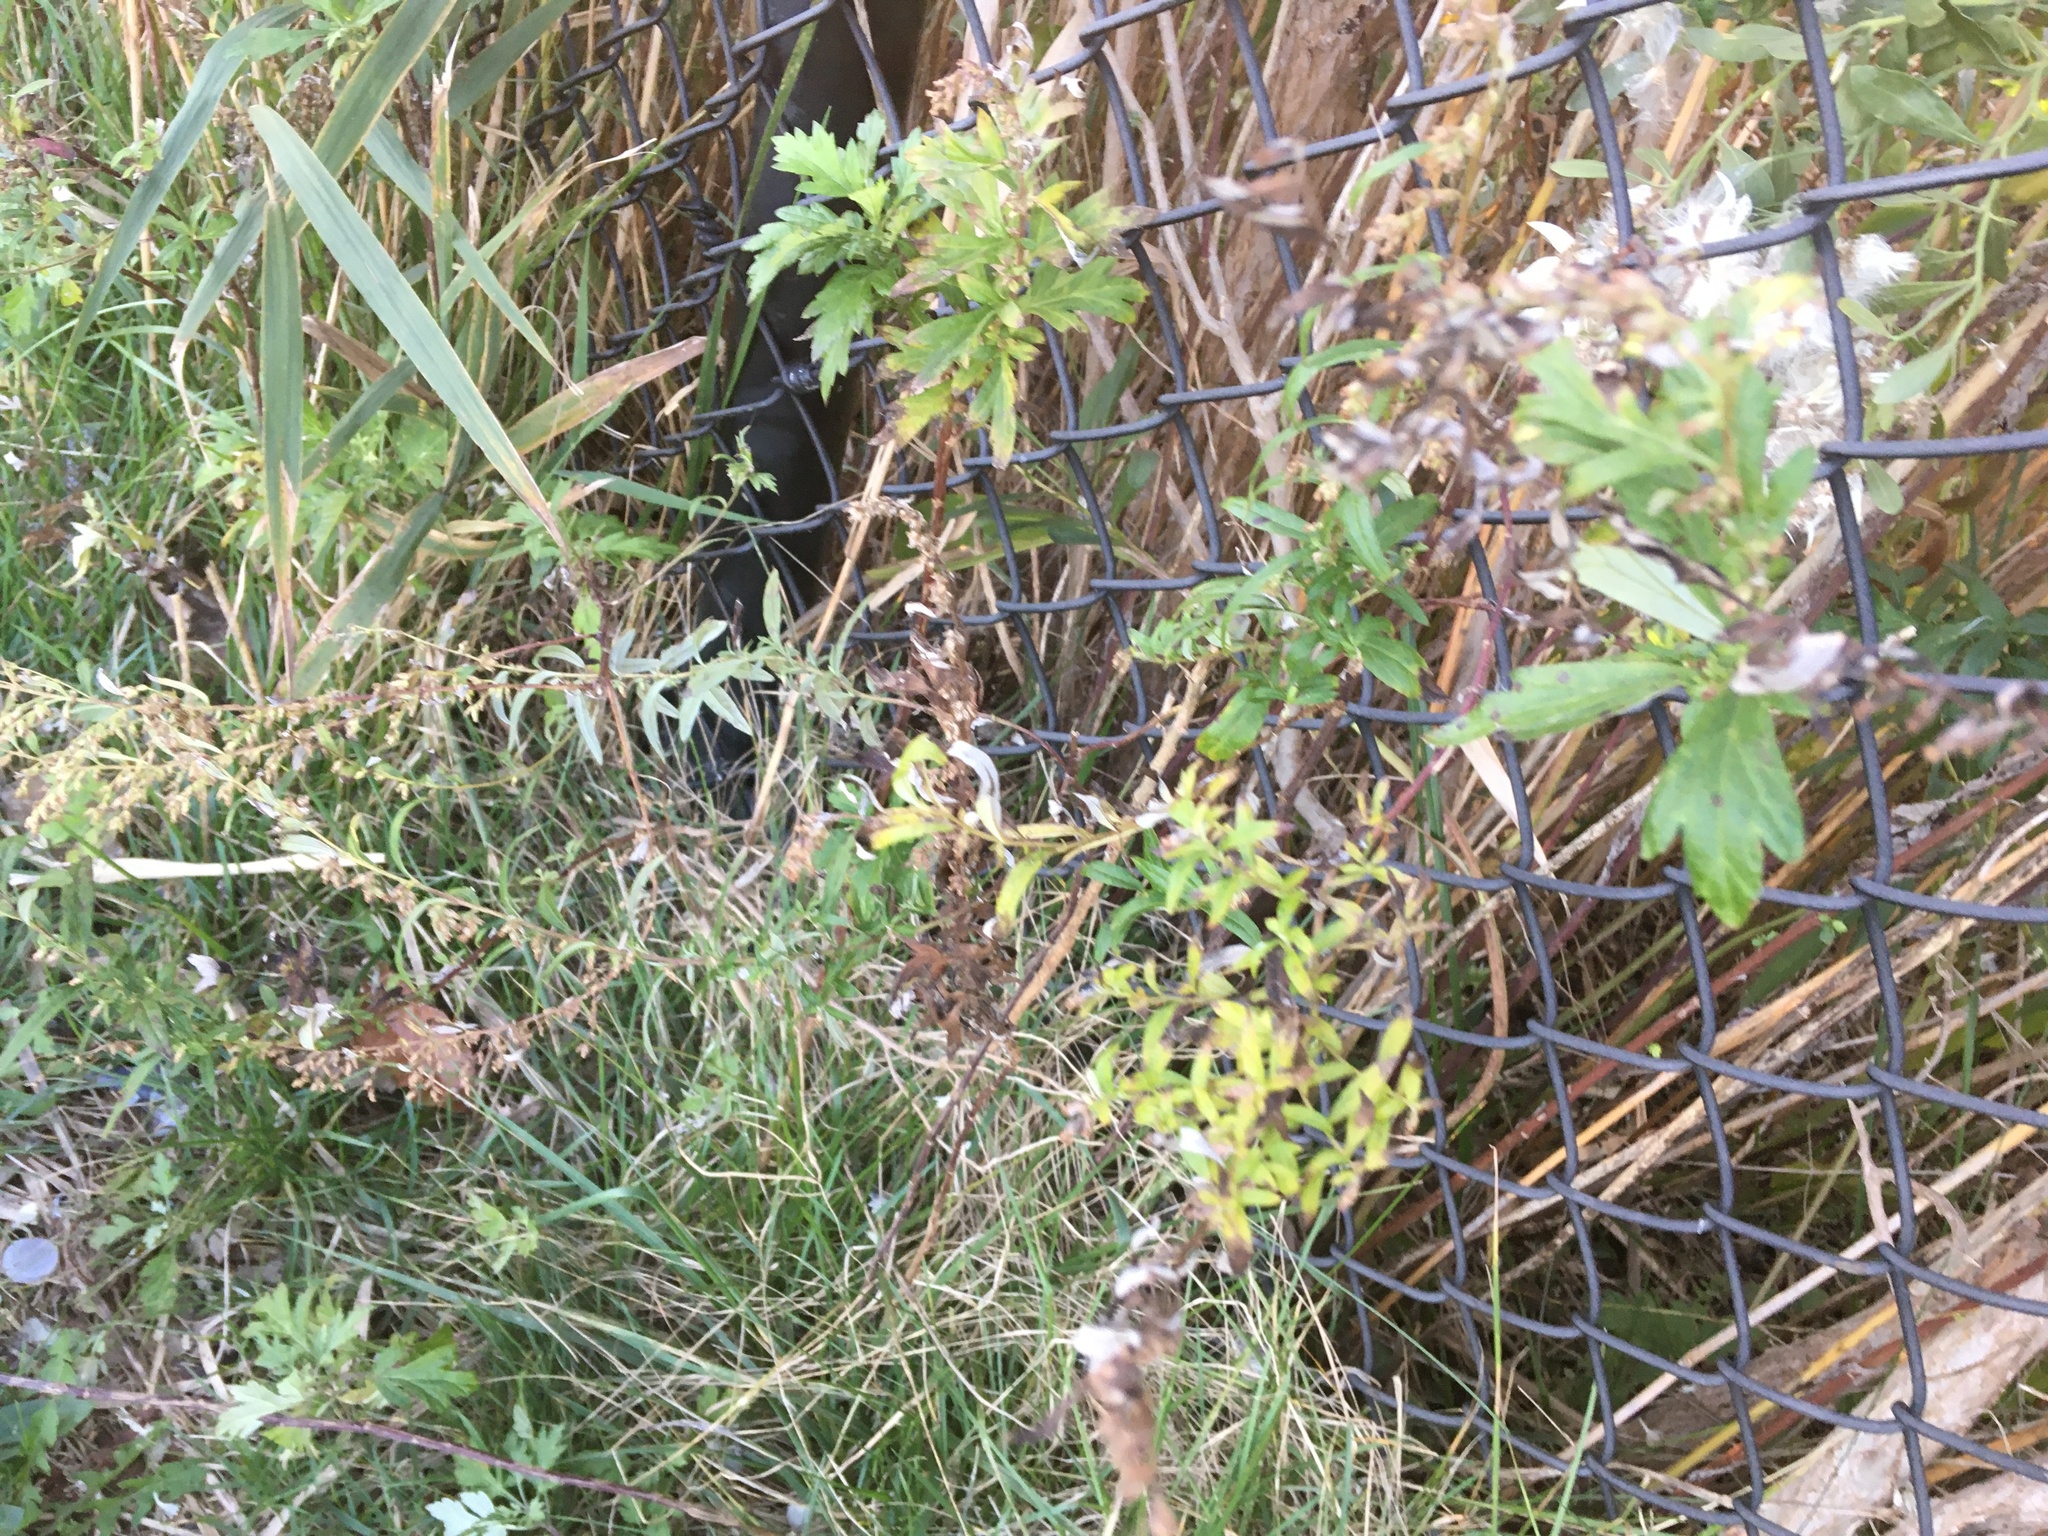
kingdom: Plantae
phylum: Tracheophyta
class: Magnoliopsida
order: Asterales
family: Asteraceae
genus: Artemisia
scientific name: Artemisia vulgaris
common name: Mugwort
